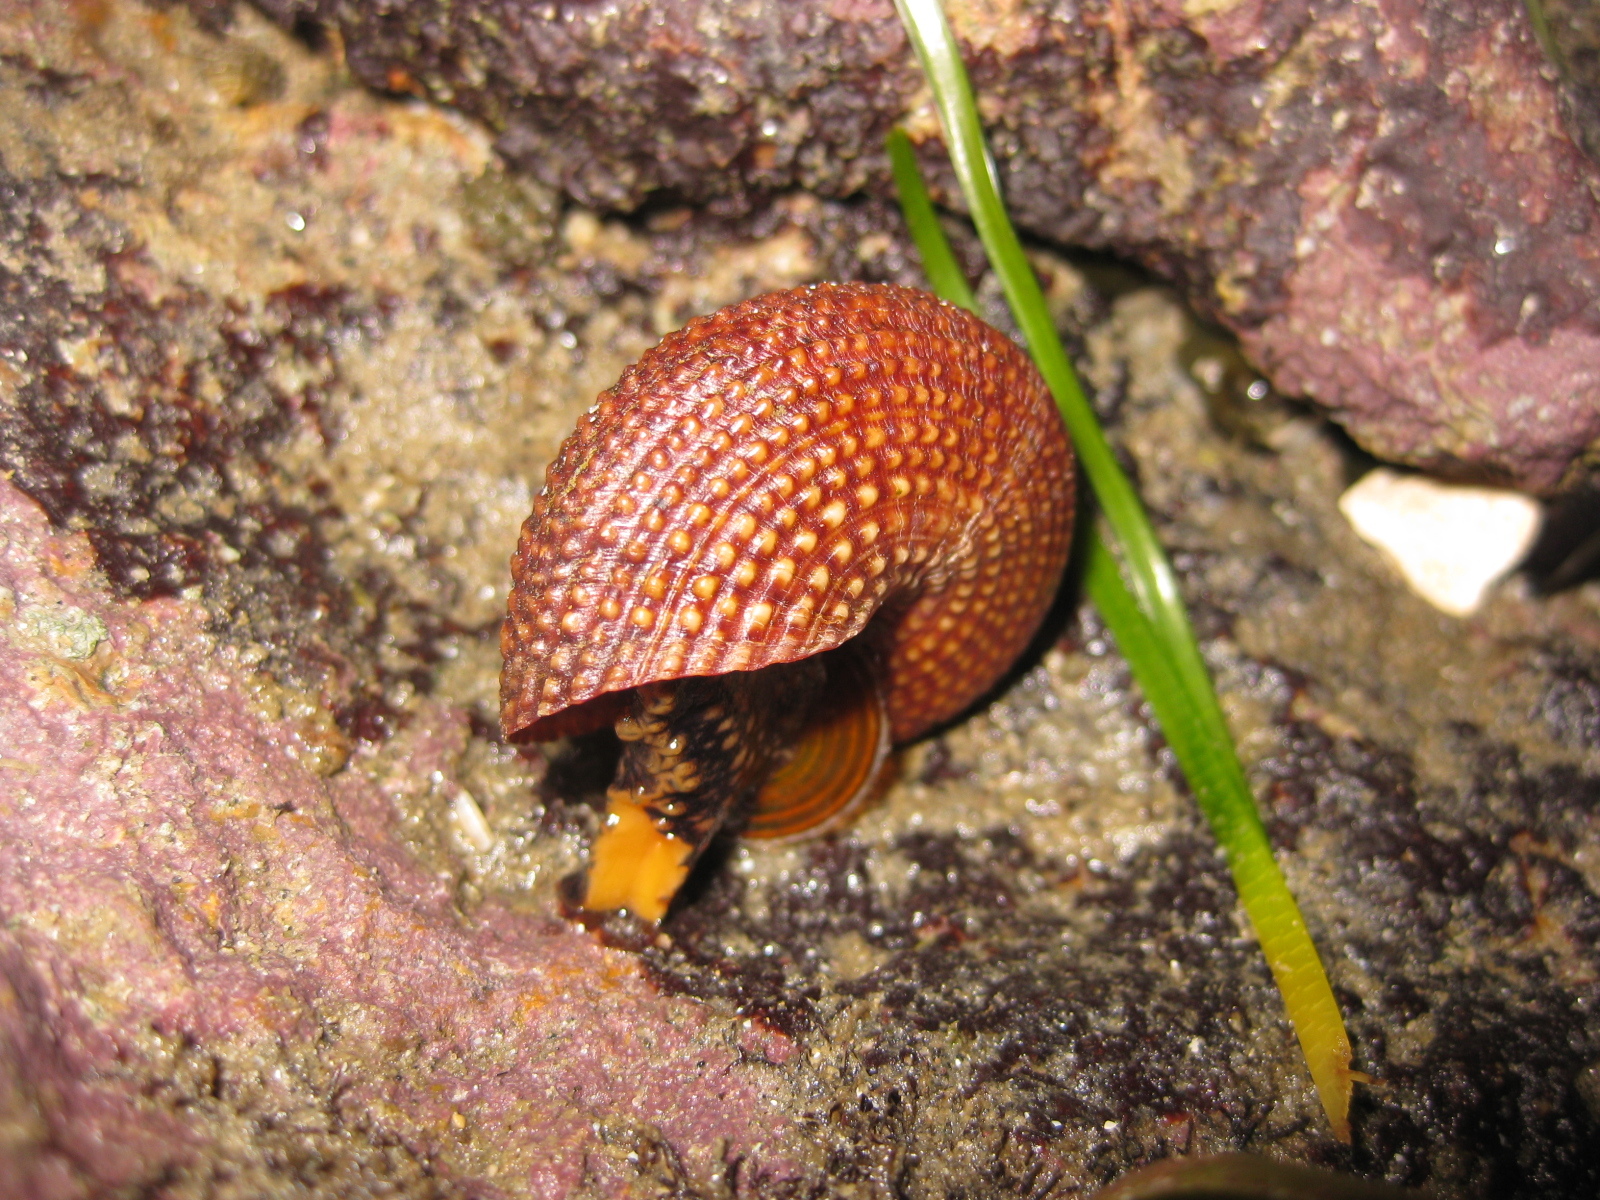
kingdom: Animalia
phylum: Mollusca
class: Gastropoda
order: Trochida
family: Calliostomatidae
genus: Maurea
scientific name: Maurea punctulata
